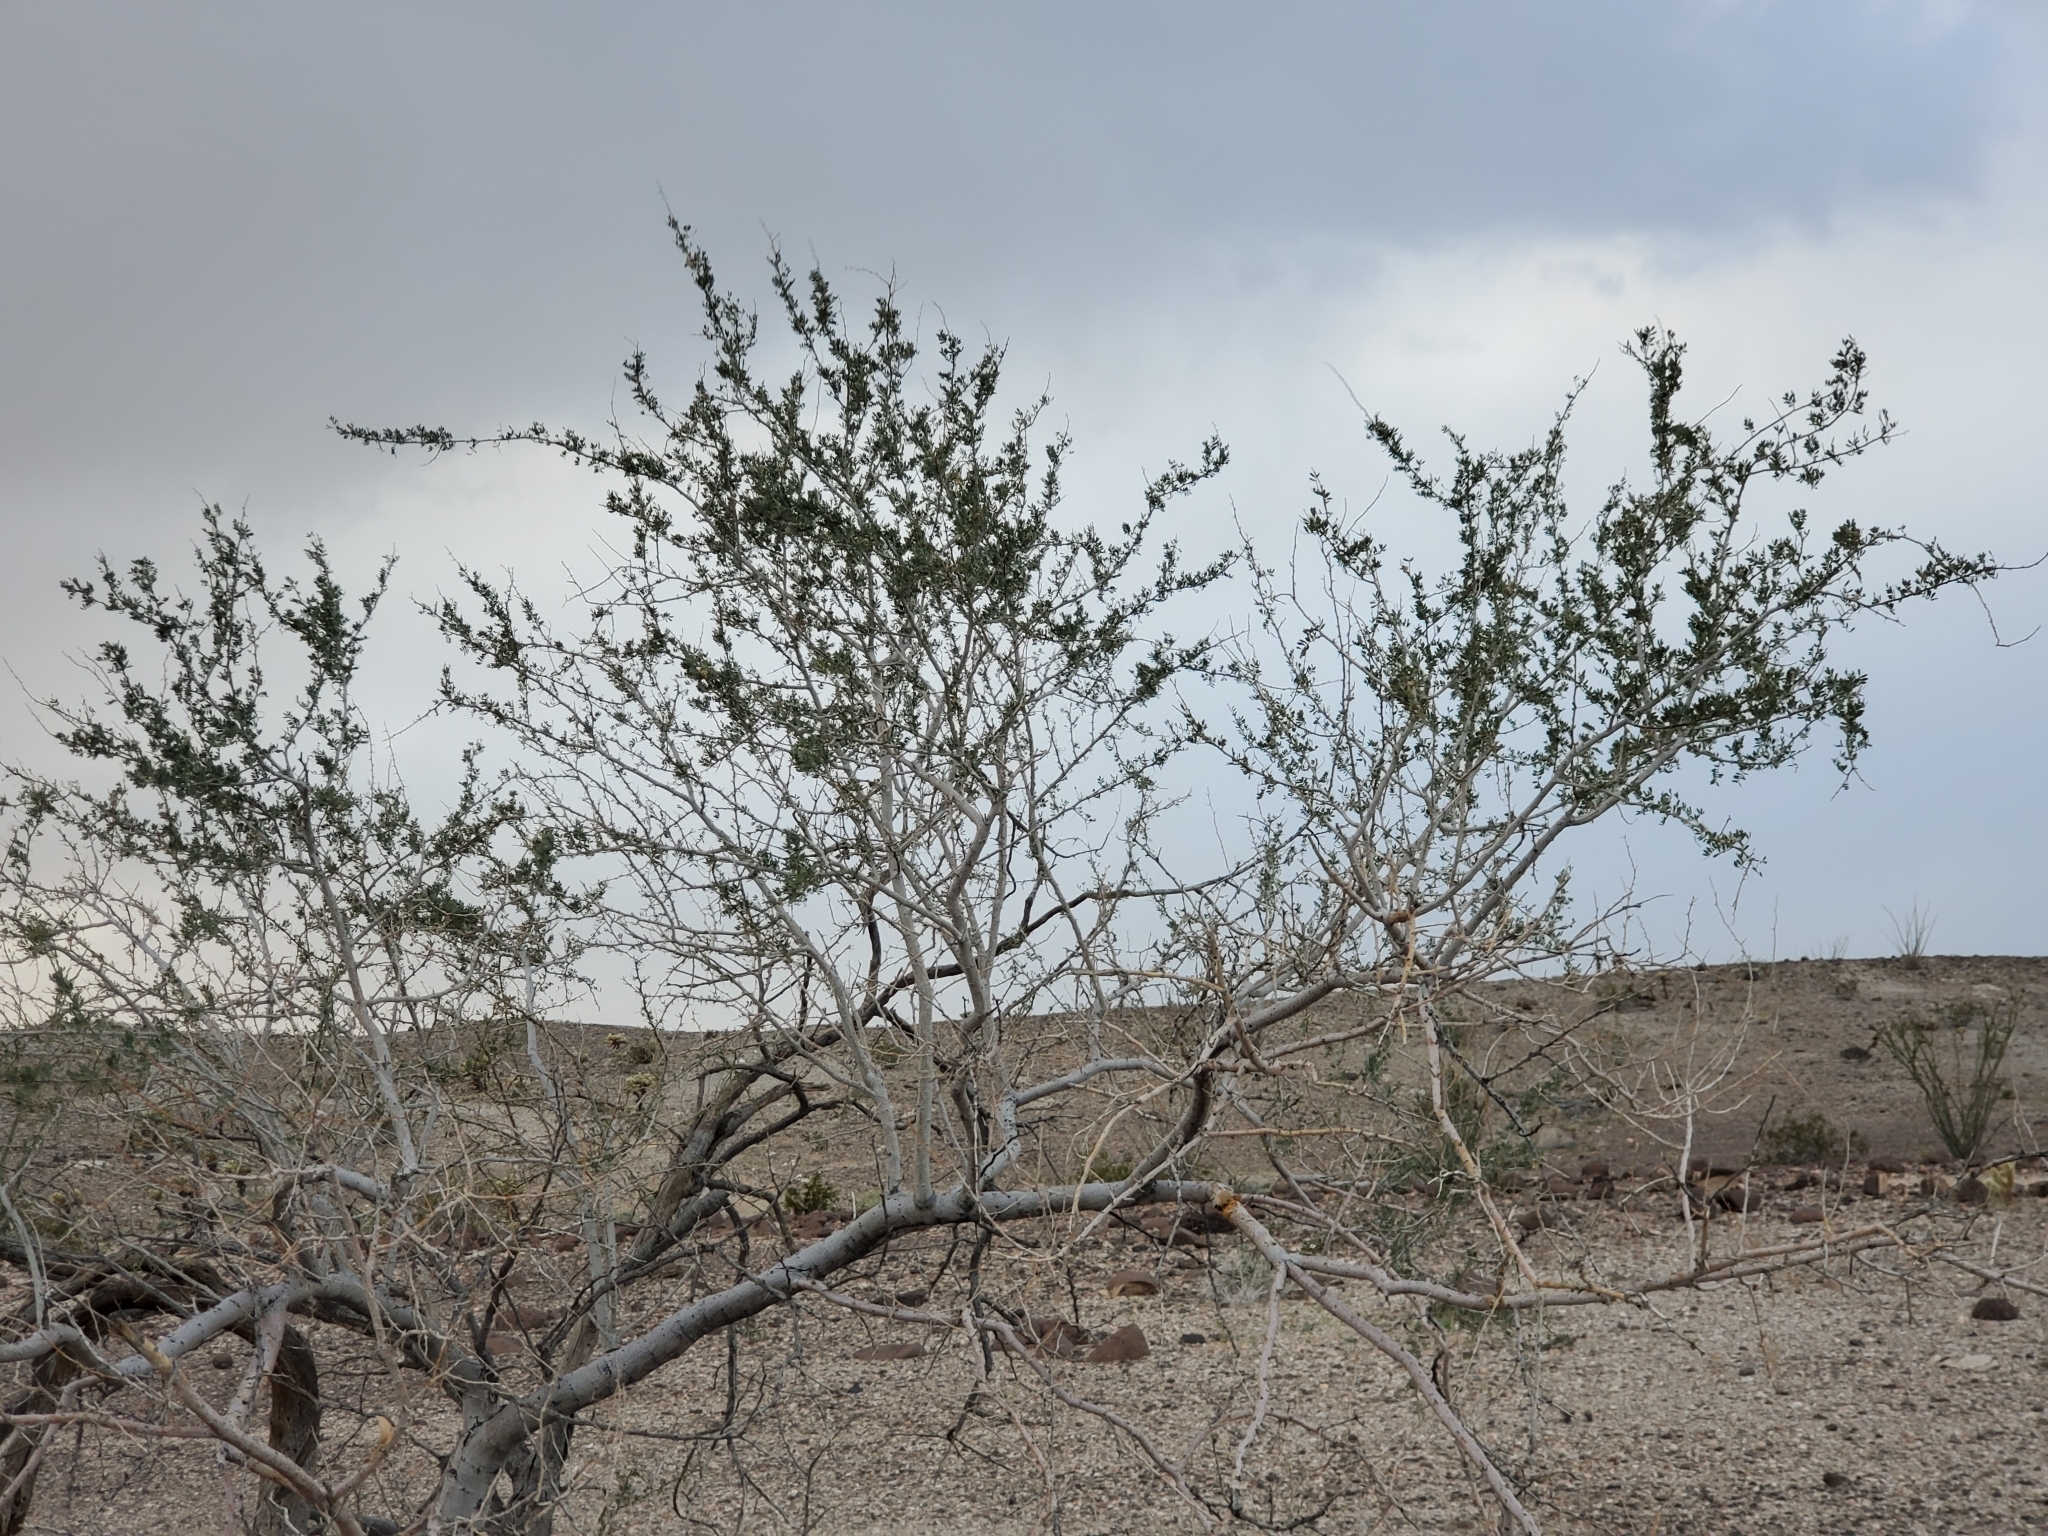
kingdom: Plantae
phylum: Tracheophyta
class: Magnoliopsida
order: Fabales
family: Fabaceae
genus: Olneya
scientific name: Olneya tesota
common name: Desert ironwood
